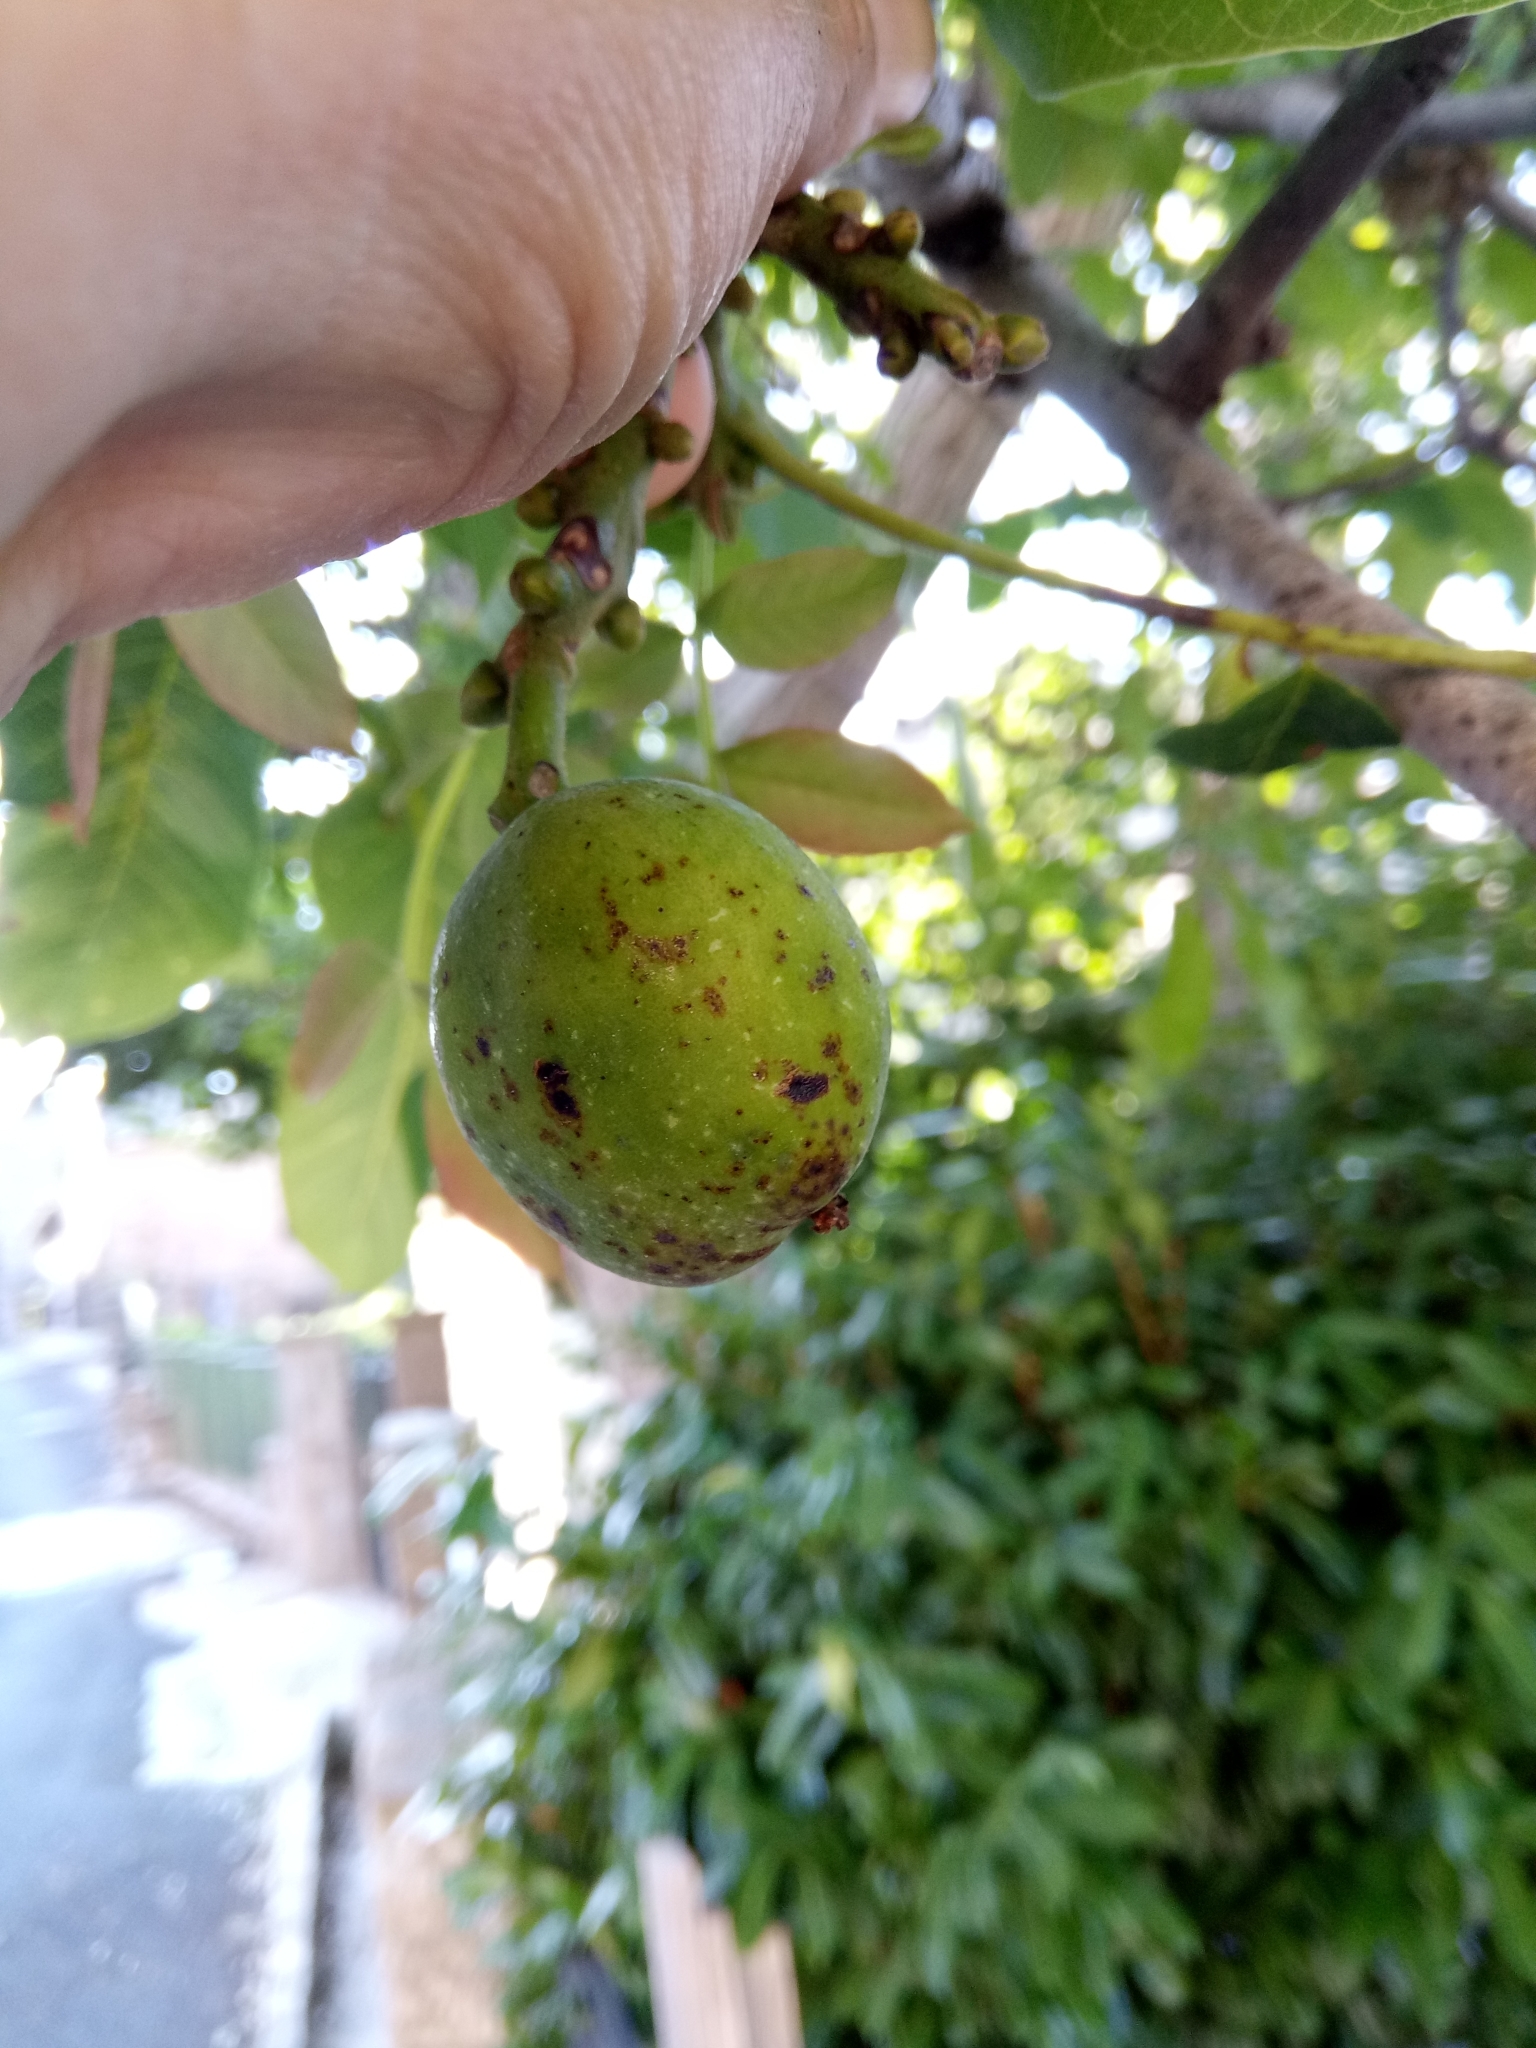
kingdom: Plantae
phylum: Tracheophyta
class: Magnoliopsida
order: Fagales
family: Juglandaceae
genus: Juglans
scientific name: Juglans regia
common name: Walnut
